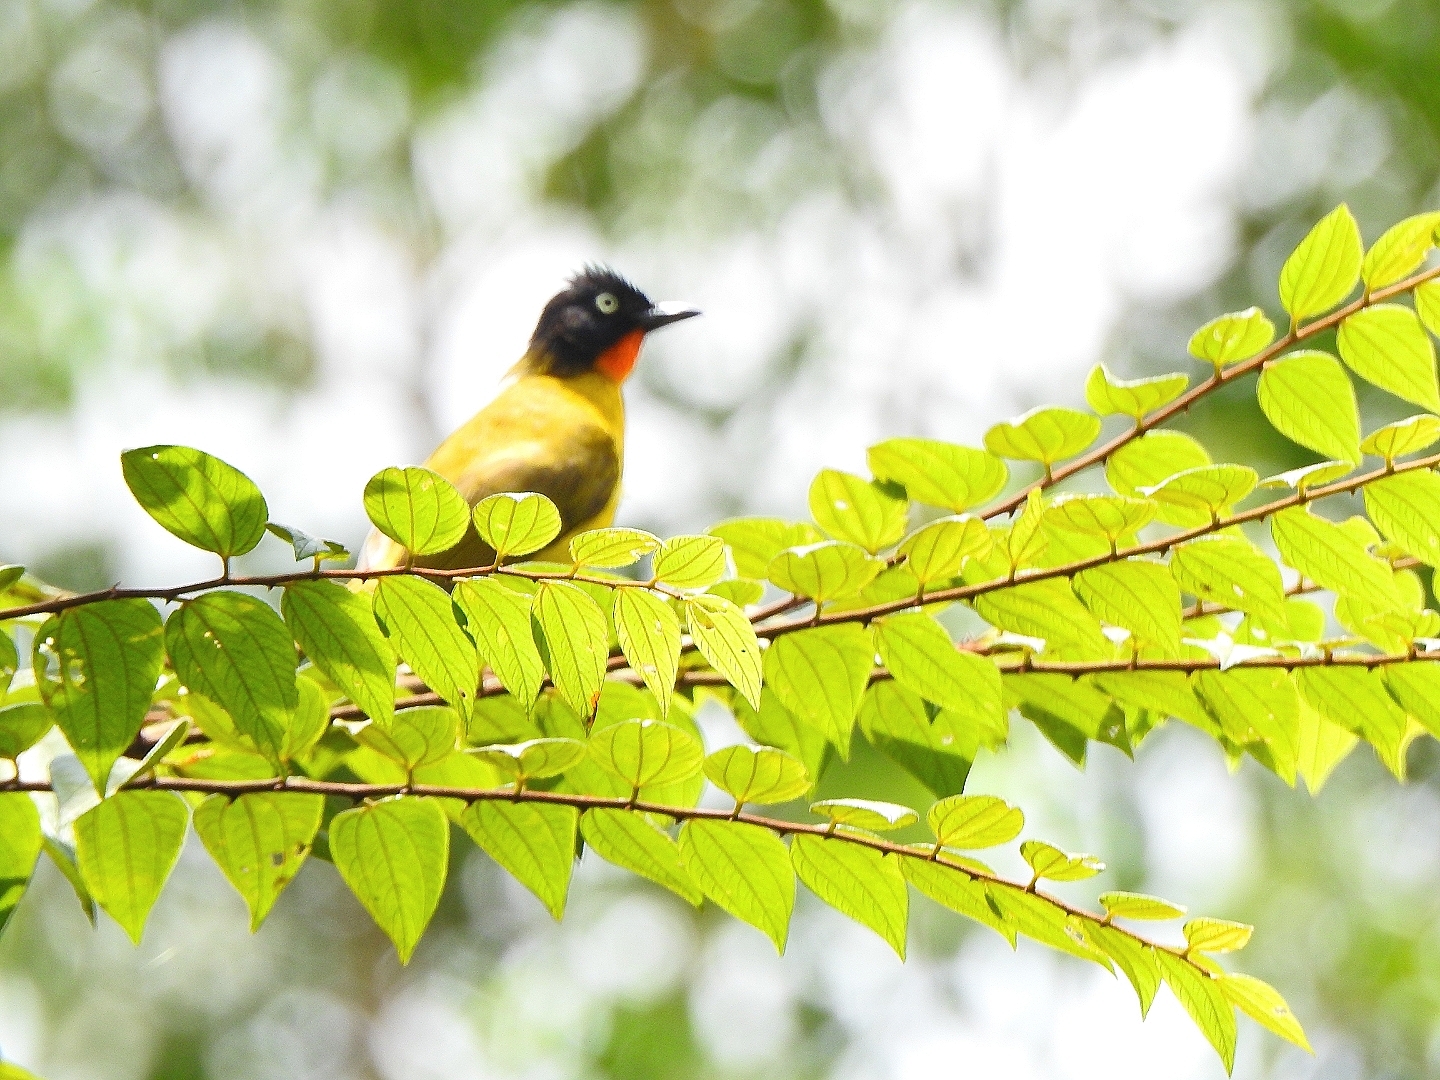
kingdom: Animalia
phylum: Chordata
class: Aves
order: Passeriformes
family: Pycnonotidae
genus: Pycnonotus
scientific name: Pycnonotus gularis
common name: Flame-throated bulbul
